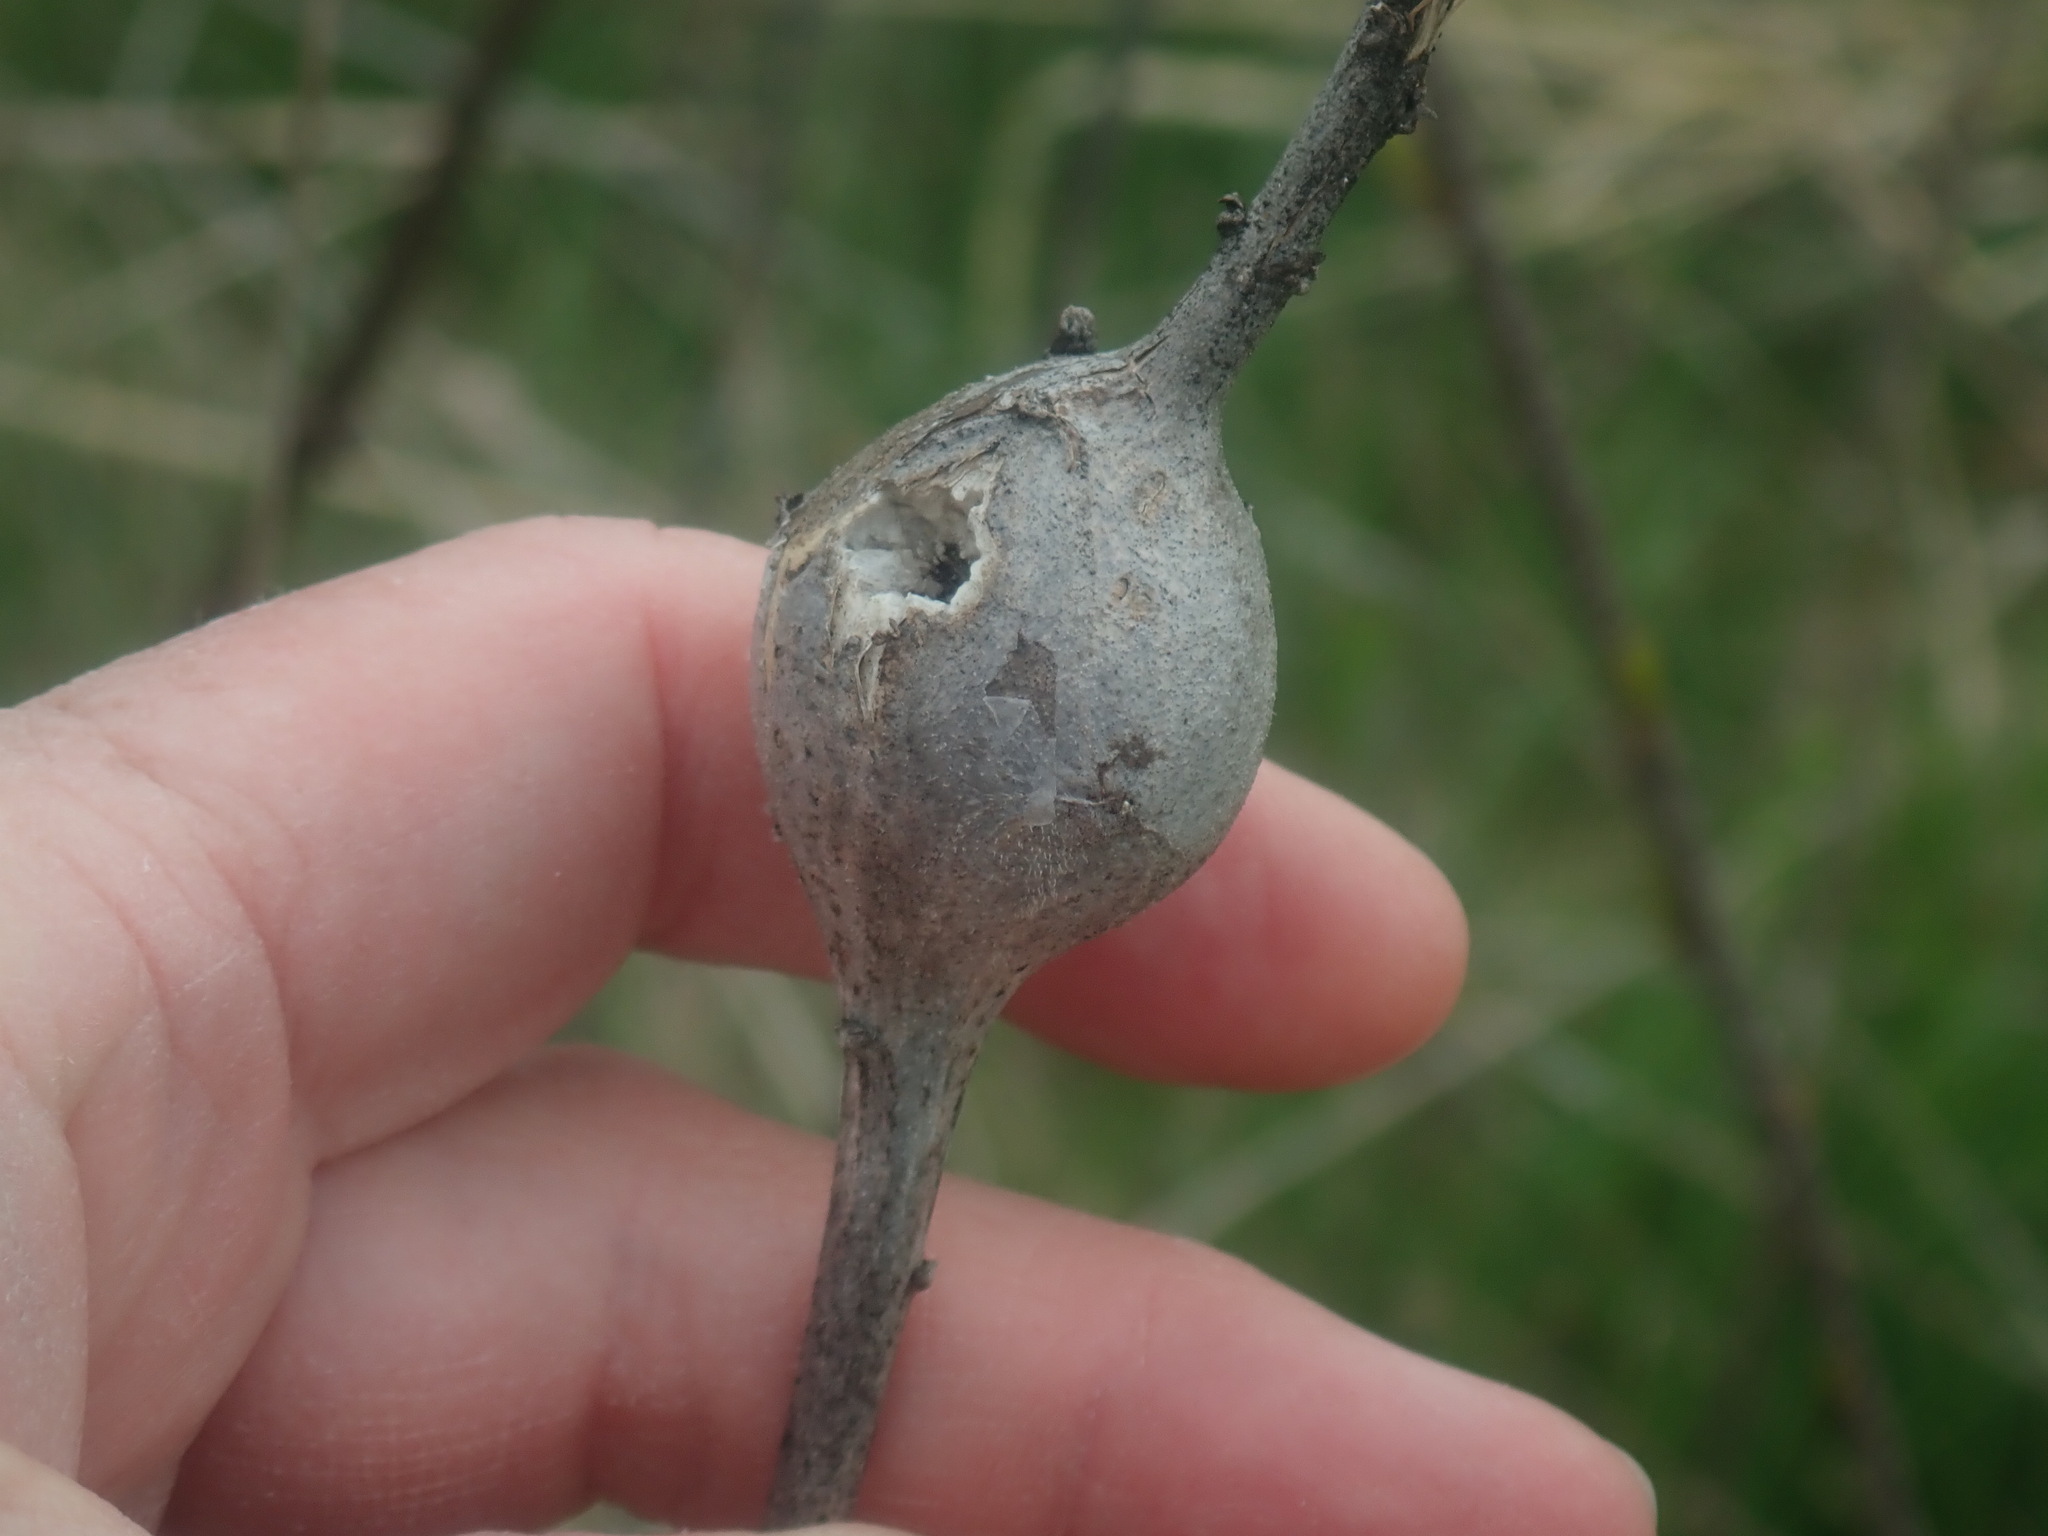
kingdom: Animalia
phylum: Arthropoda
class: Insecta
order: Diptera
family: Tephritidae
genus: Eurosta
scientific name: Eurosta solidaginis
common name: Goldenrod gall fly
